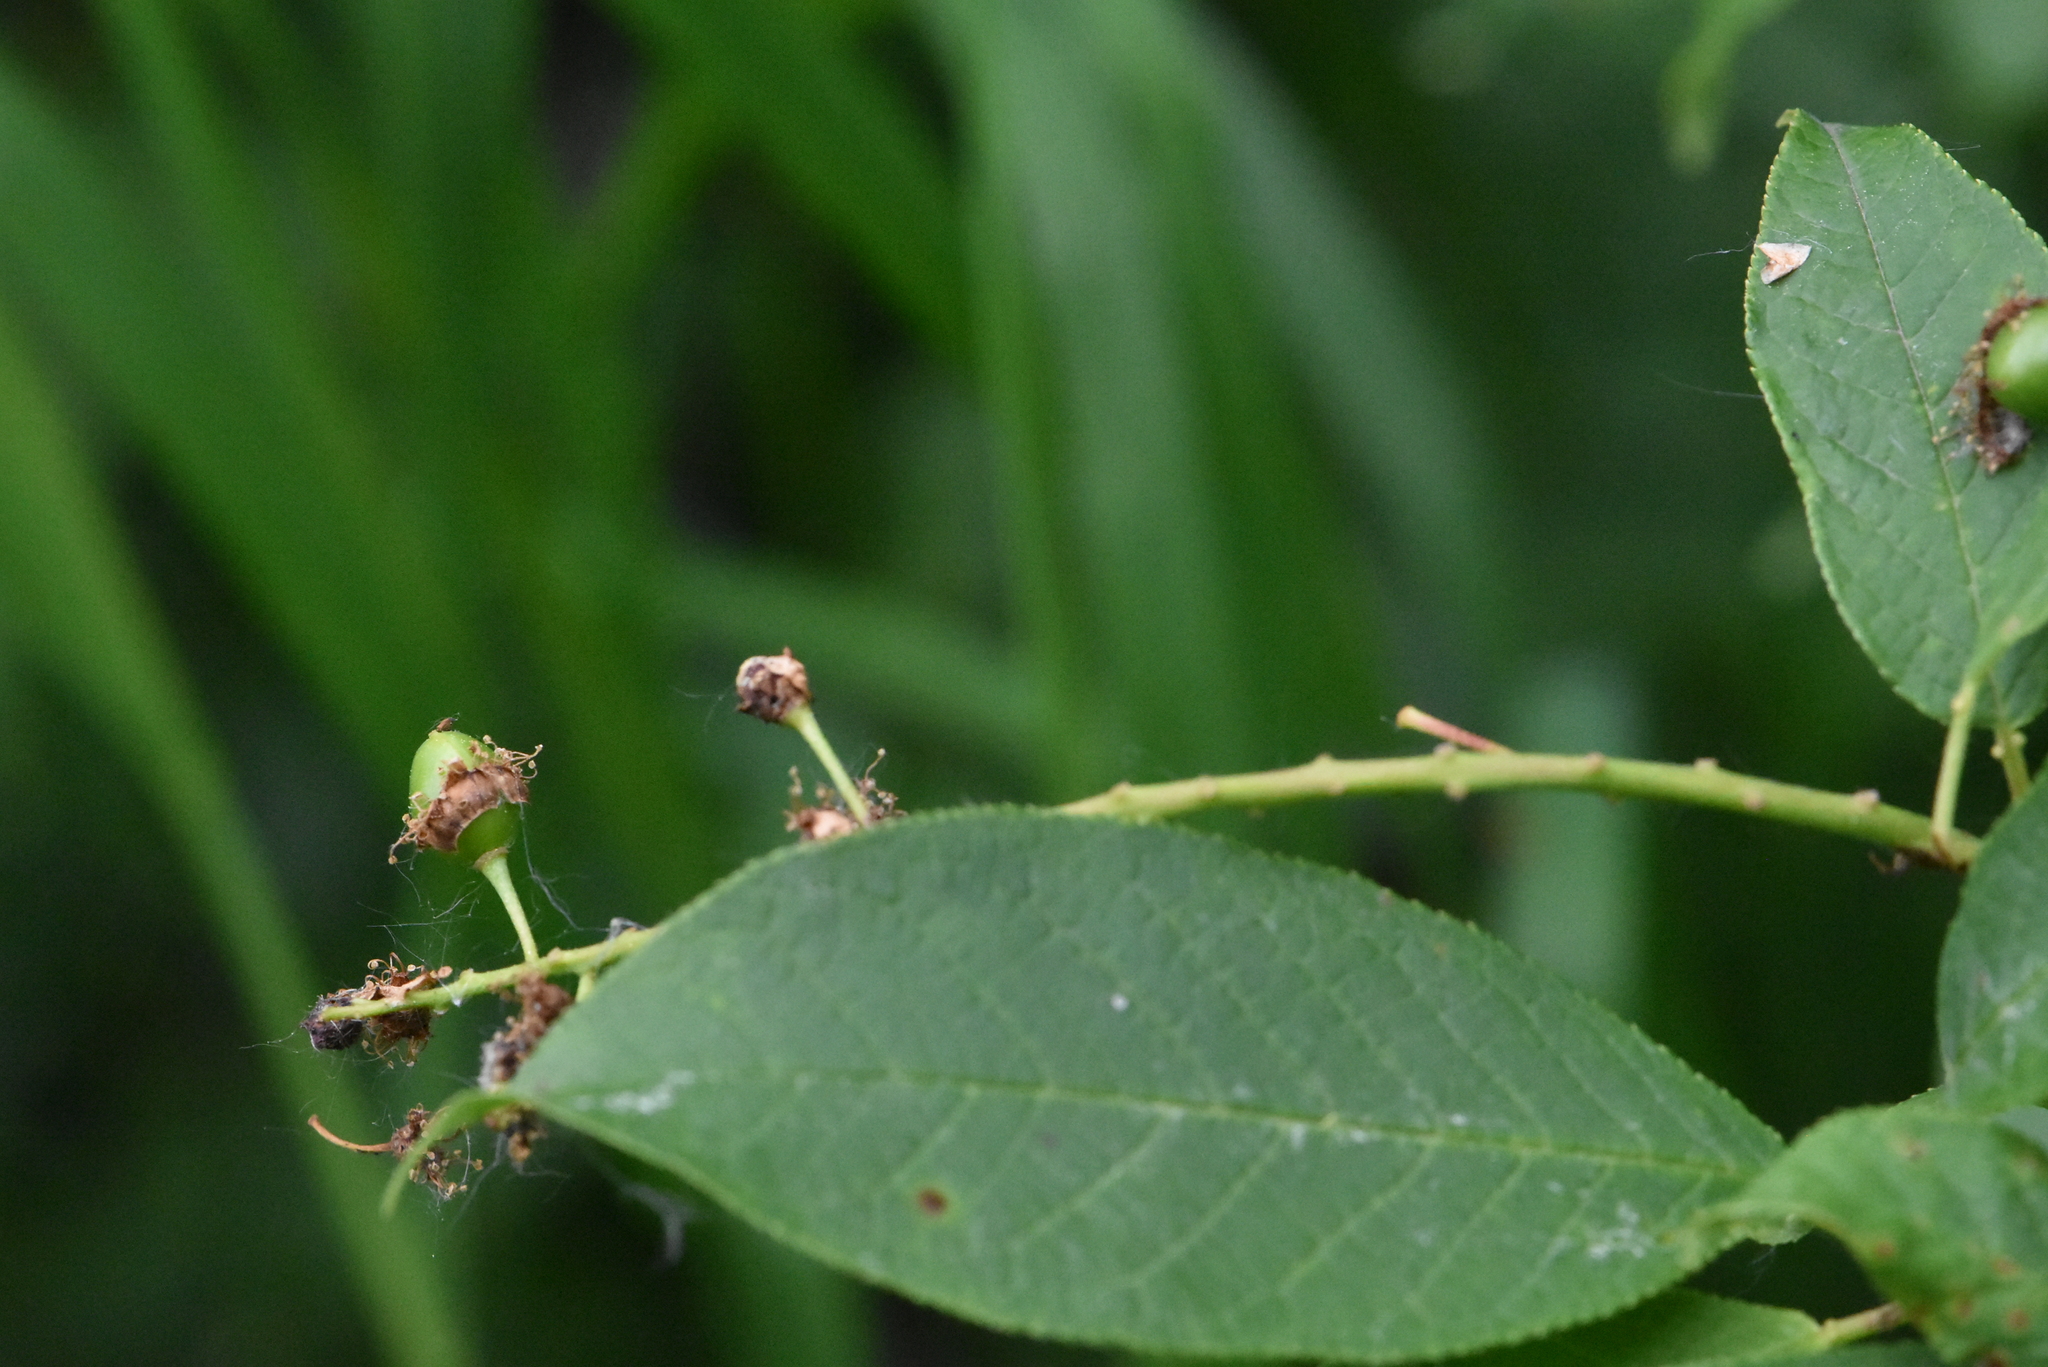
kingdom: Plantae
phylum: Tracheophyta
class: Magnoliopsida
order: Rosales
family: Rosaceae
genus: Prunus
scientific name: Prunus padus
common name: Bird cherry
